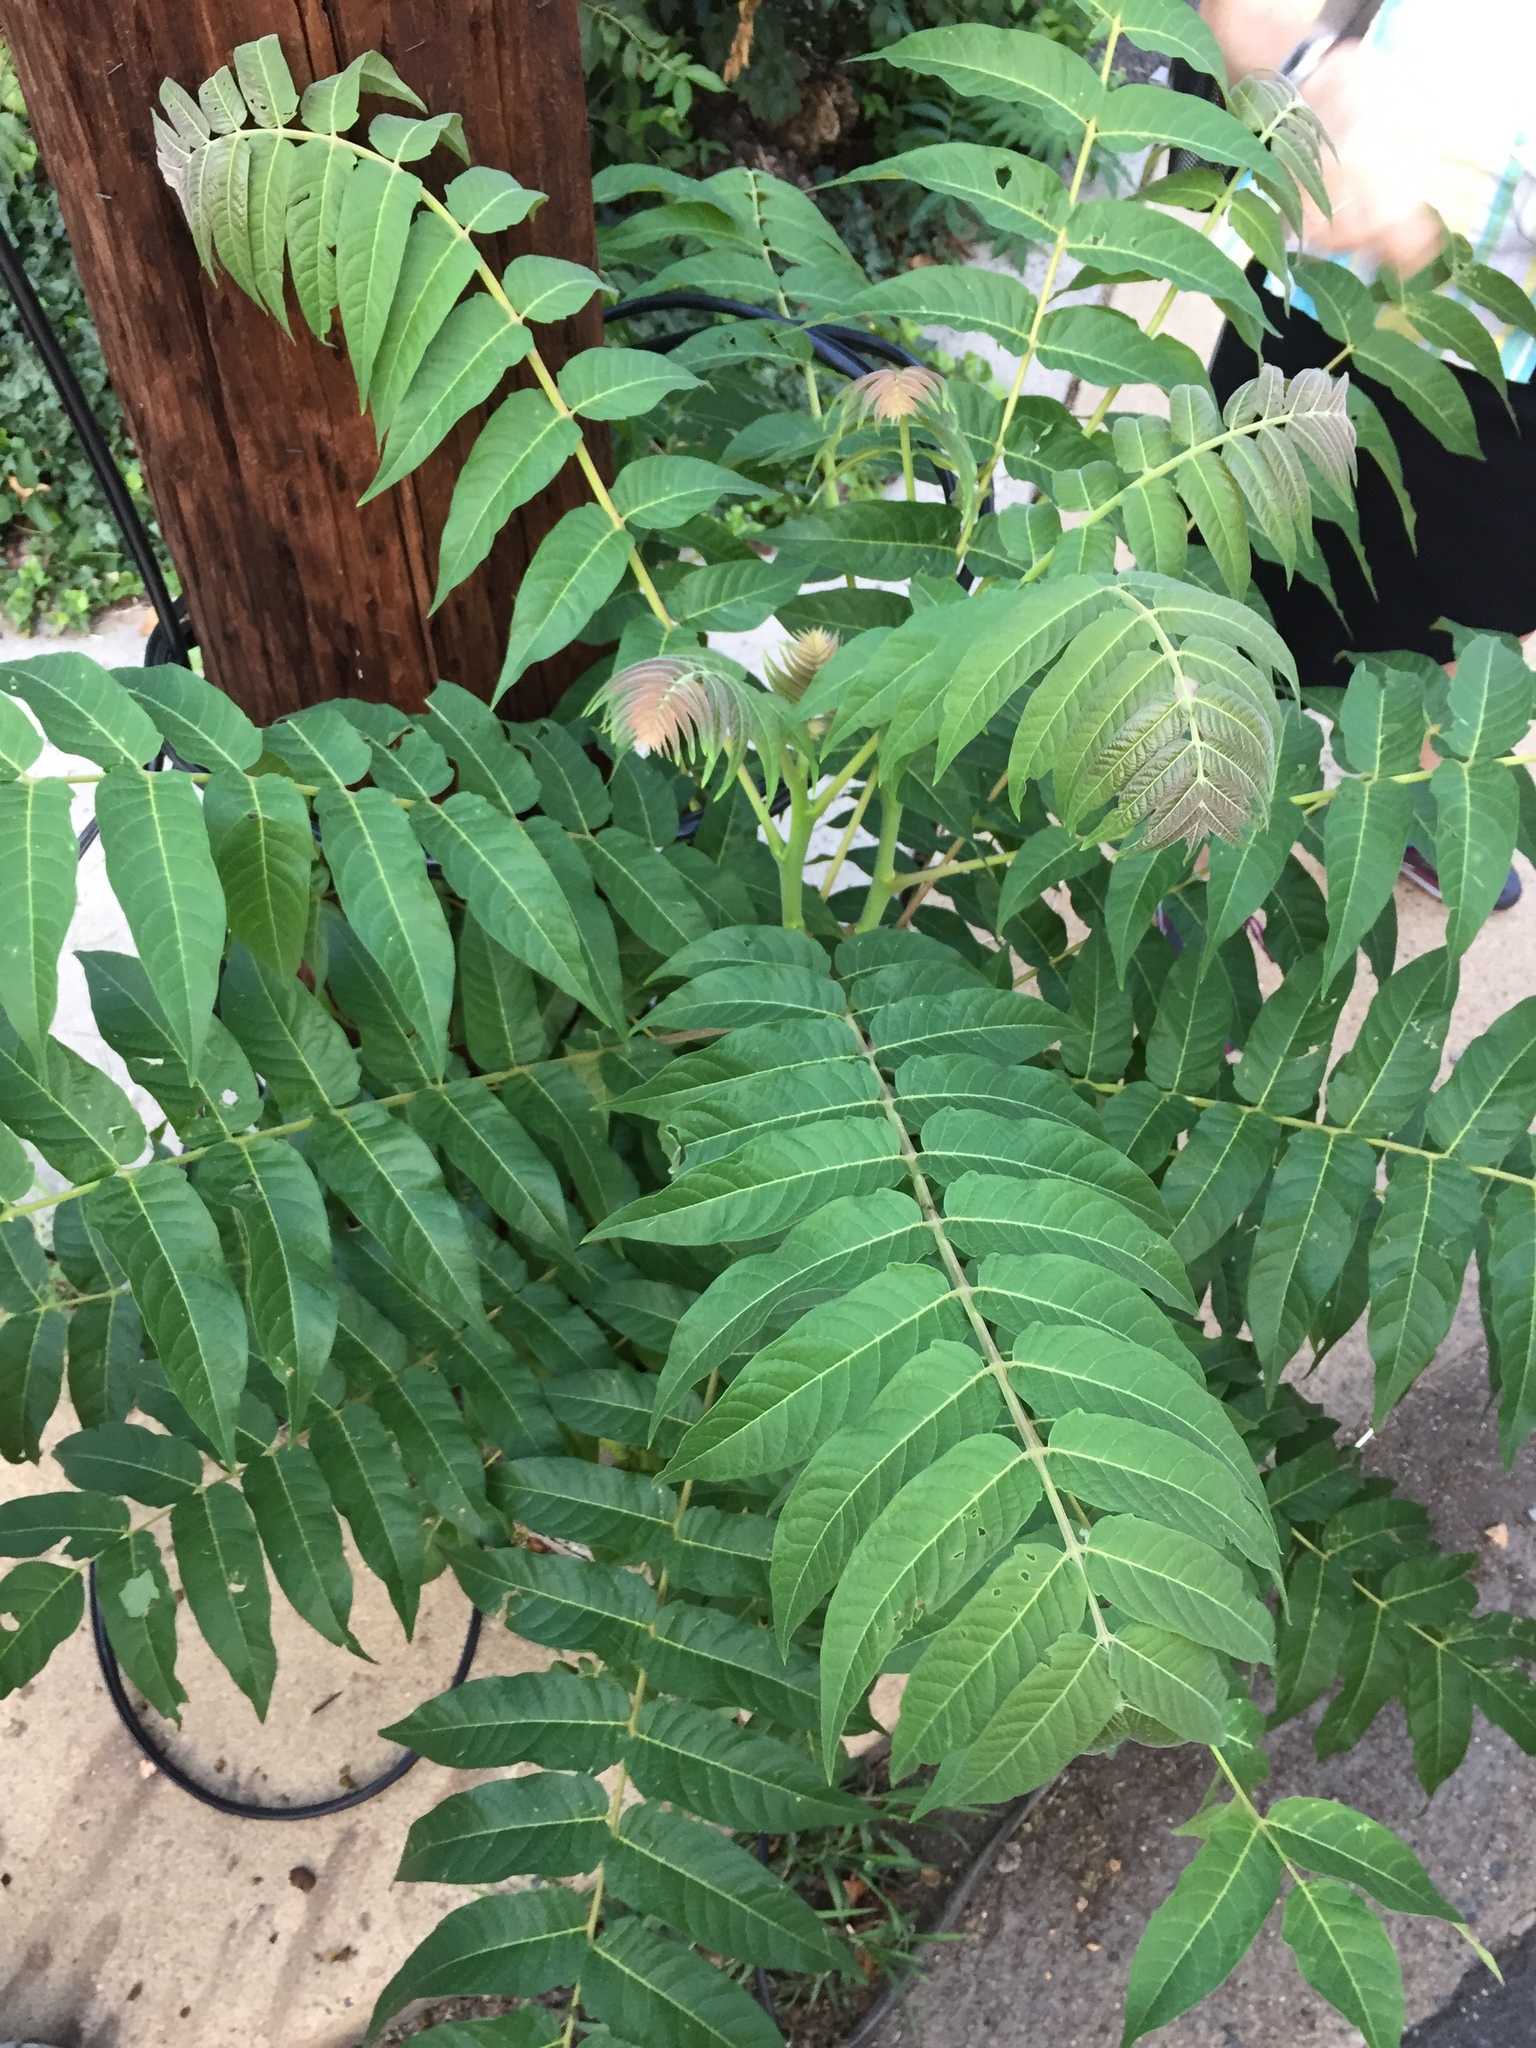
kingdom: Plantae
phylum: Tracheophyta
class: Magnoliopsida
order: Sapindales
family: Simaroubaceae
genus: Ailanthus
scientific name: Ailanthus altissima
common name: Tree-of-heaven
